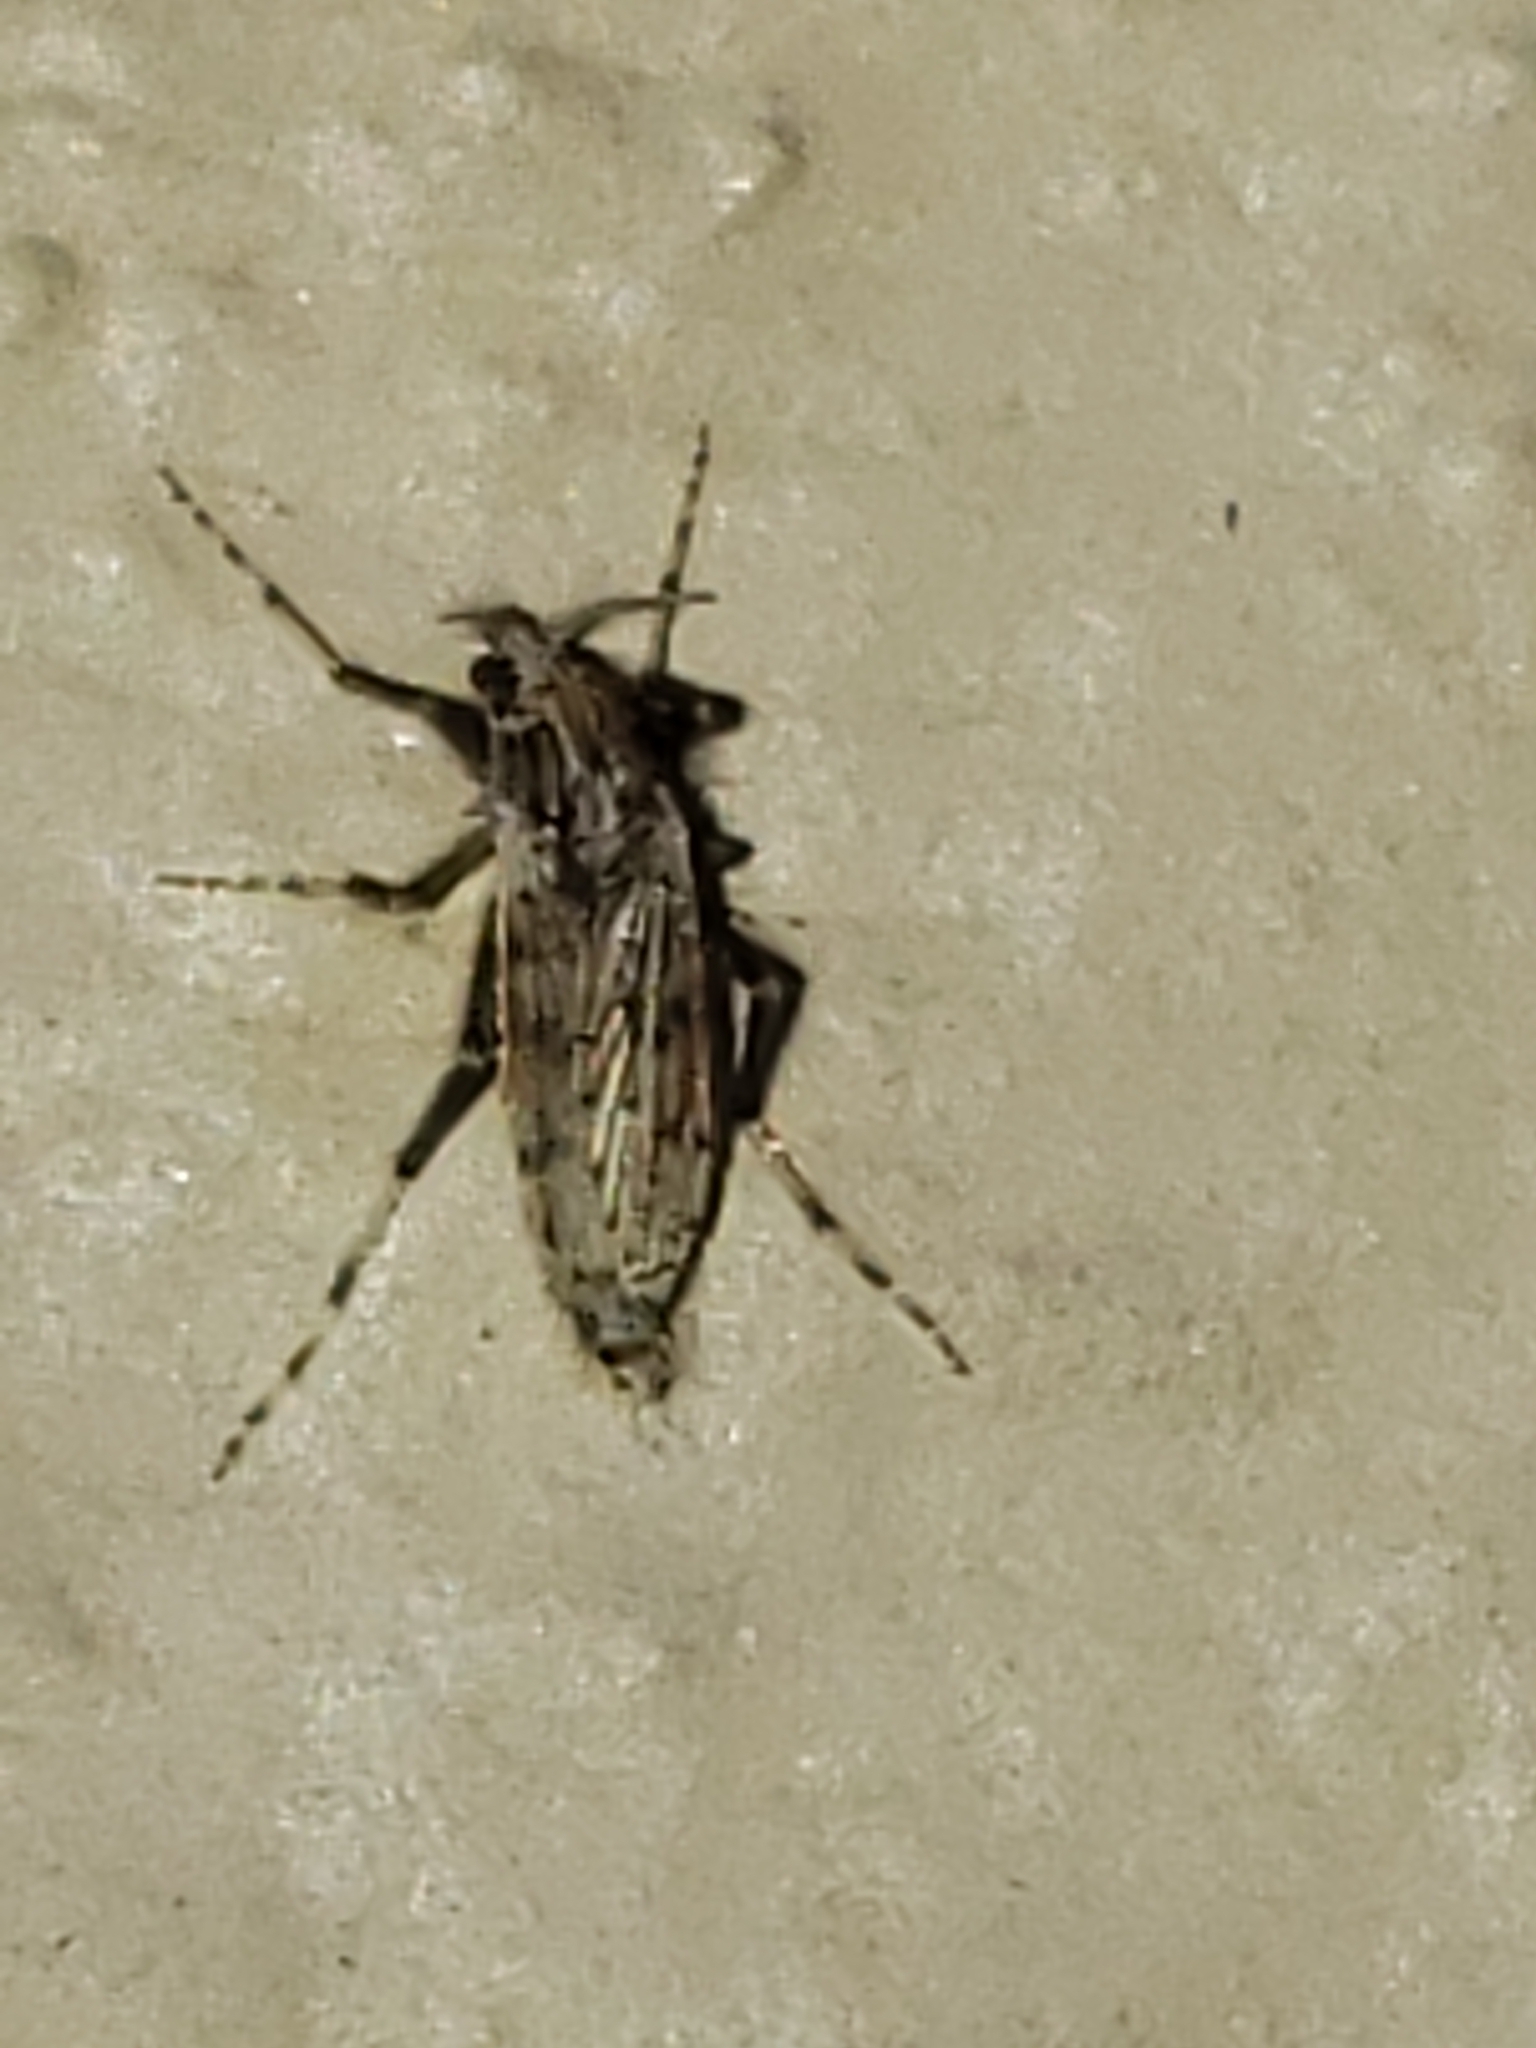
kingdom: Animalia
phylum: Arthropoda
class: Insecta
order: Diptera
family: Chaoboridae
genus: Chaoborus
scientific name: Chaoborus punctipennis
